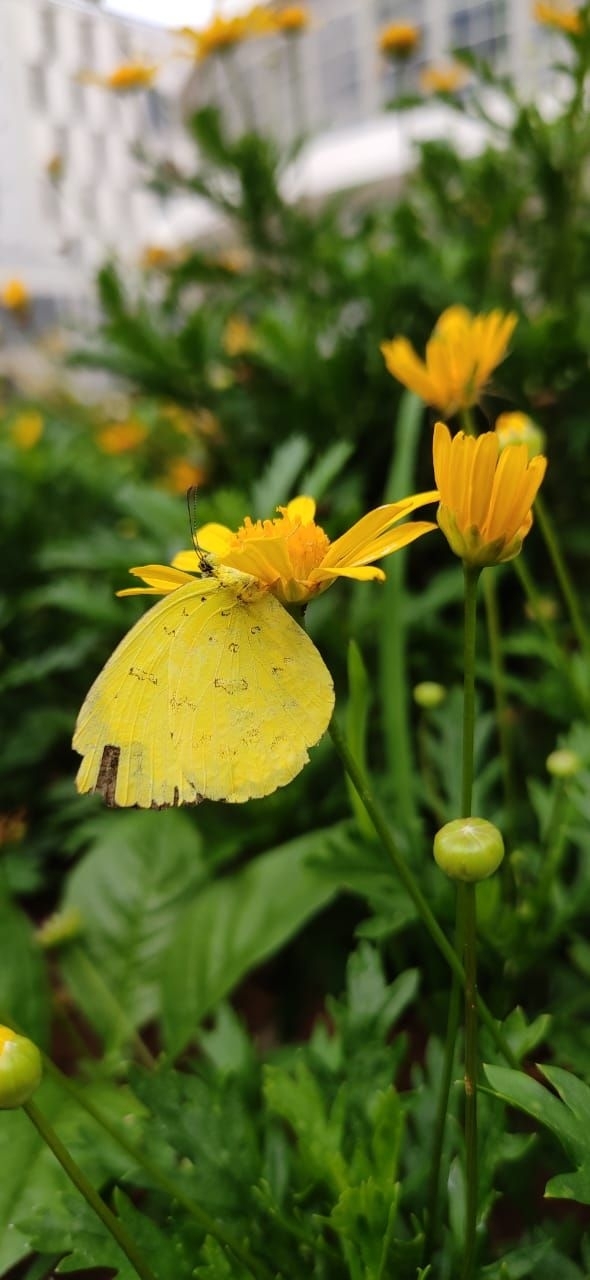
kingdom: Animalia
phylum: Arthropoda
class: Insecta
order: Lepidoptera
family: Pieridae
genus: Eurema
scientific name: Eurema blanda
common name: Three-spot grass yellow
